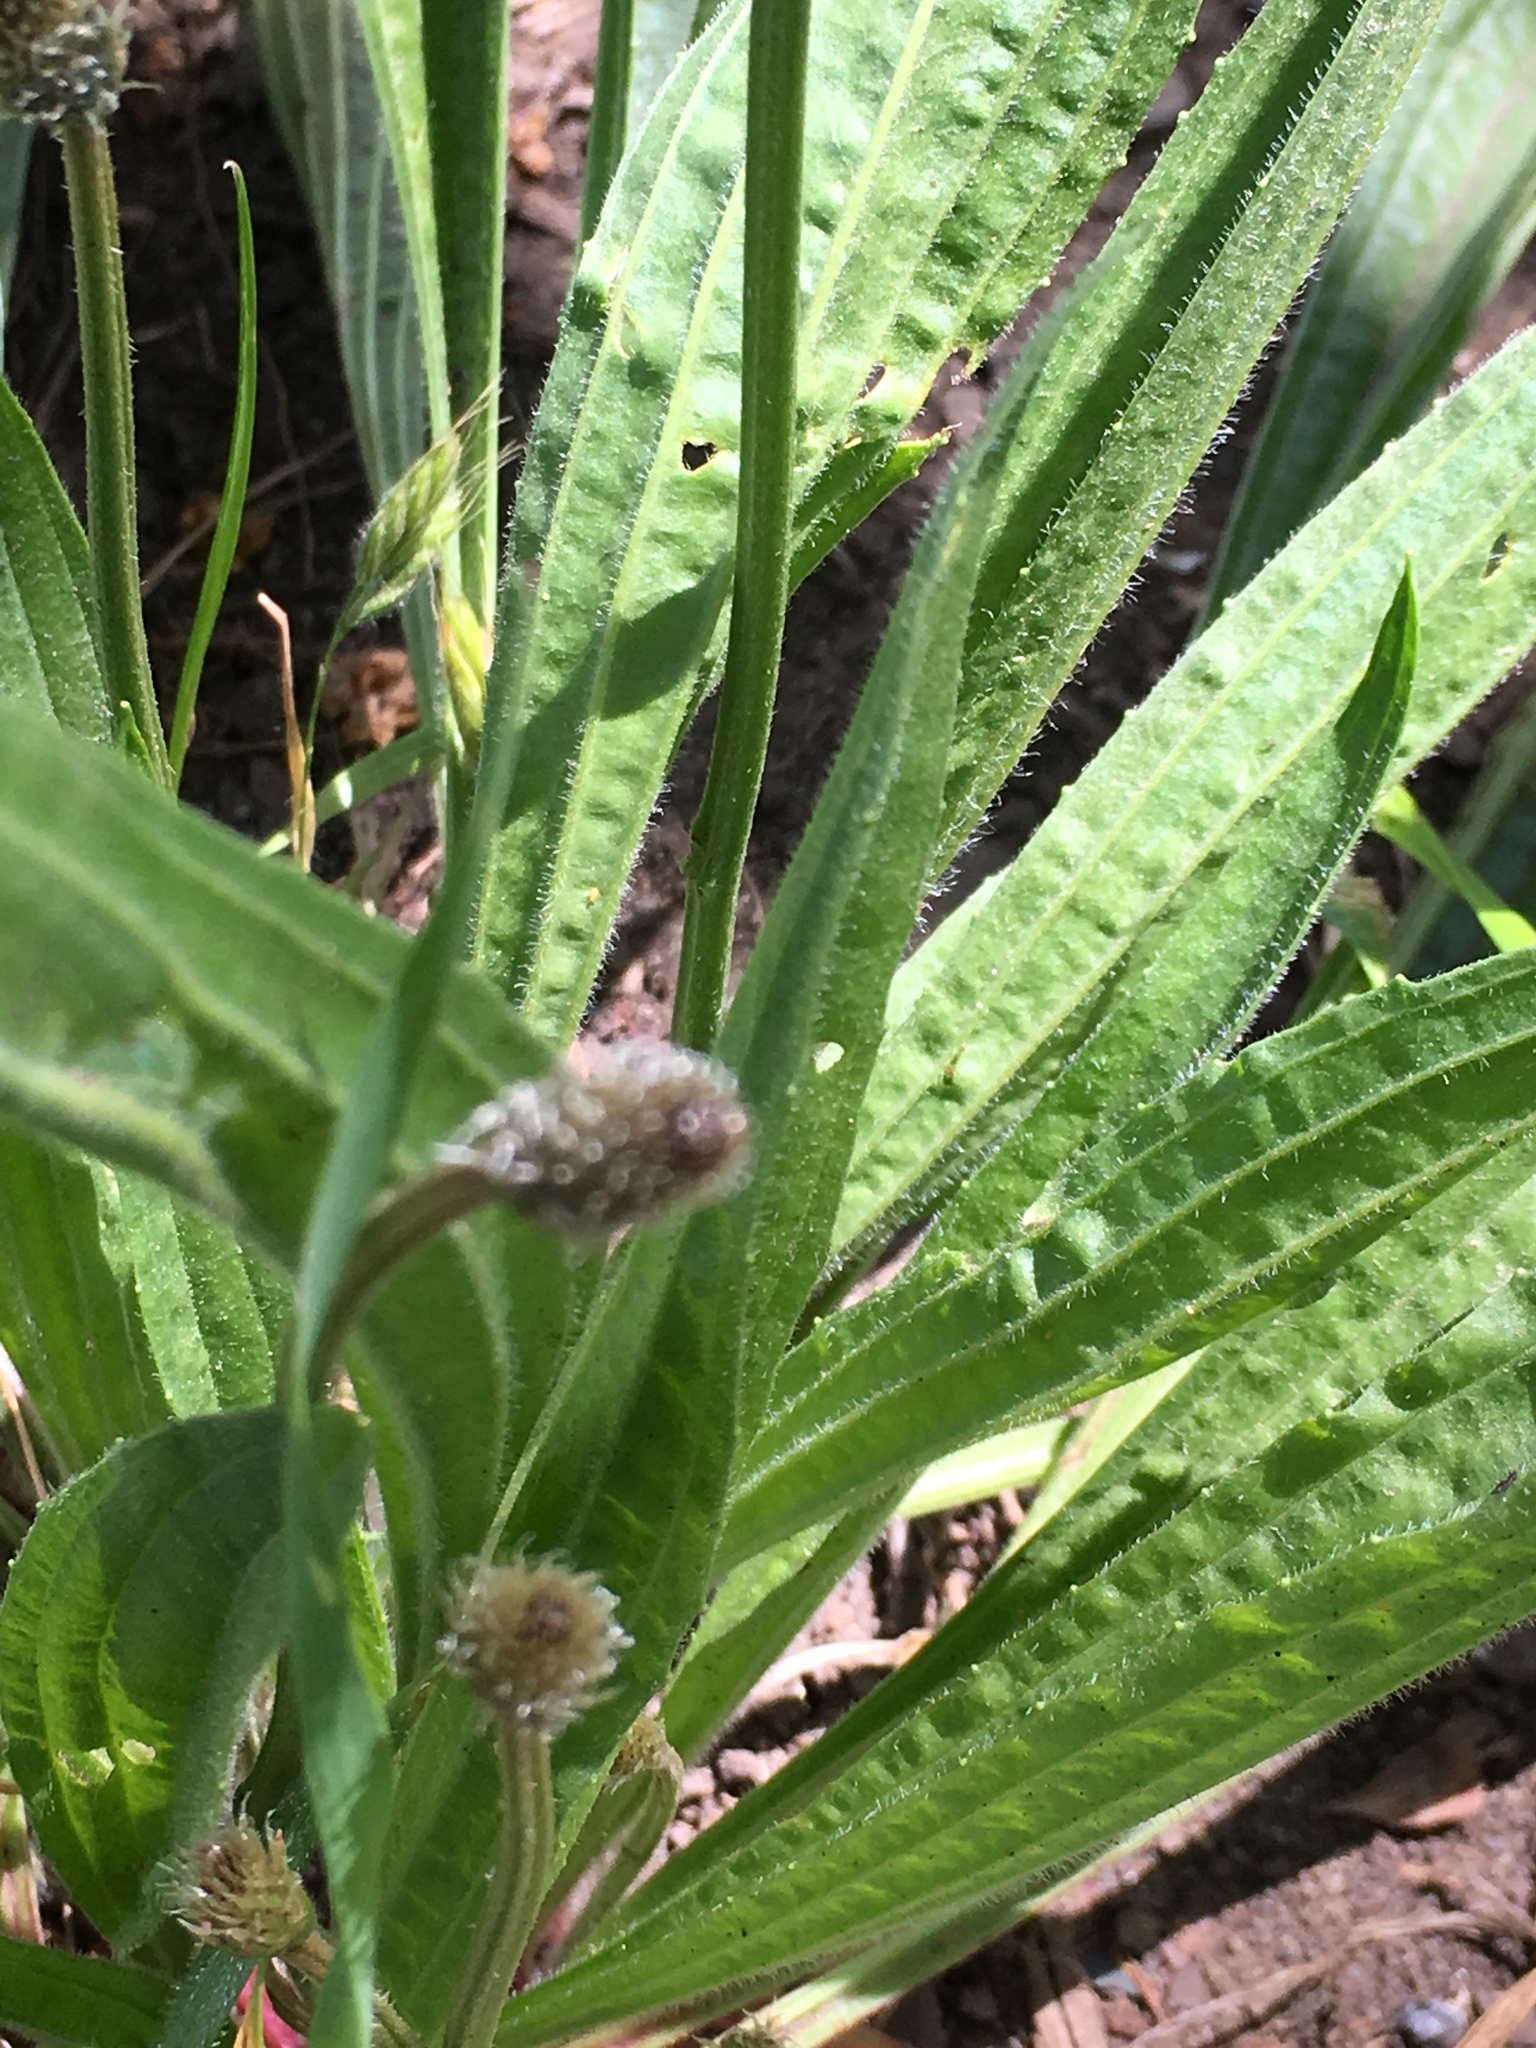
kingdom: Plantae
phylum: Tracheophyta
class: Magnoliopsida
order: Lamiales
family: Plantaginaceae
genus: Plantago
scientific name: Plantago lanceolata
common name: Ribwort plantain
